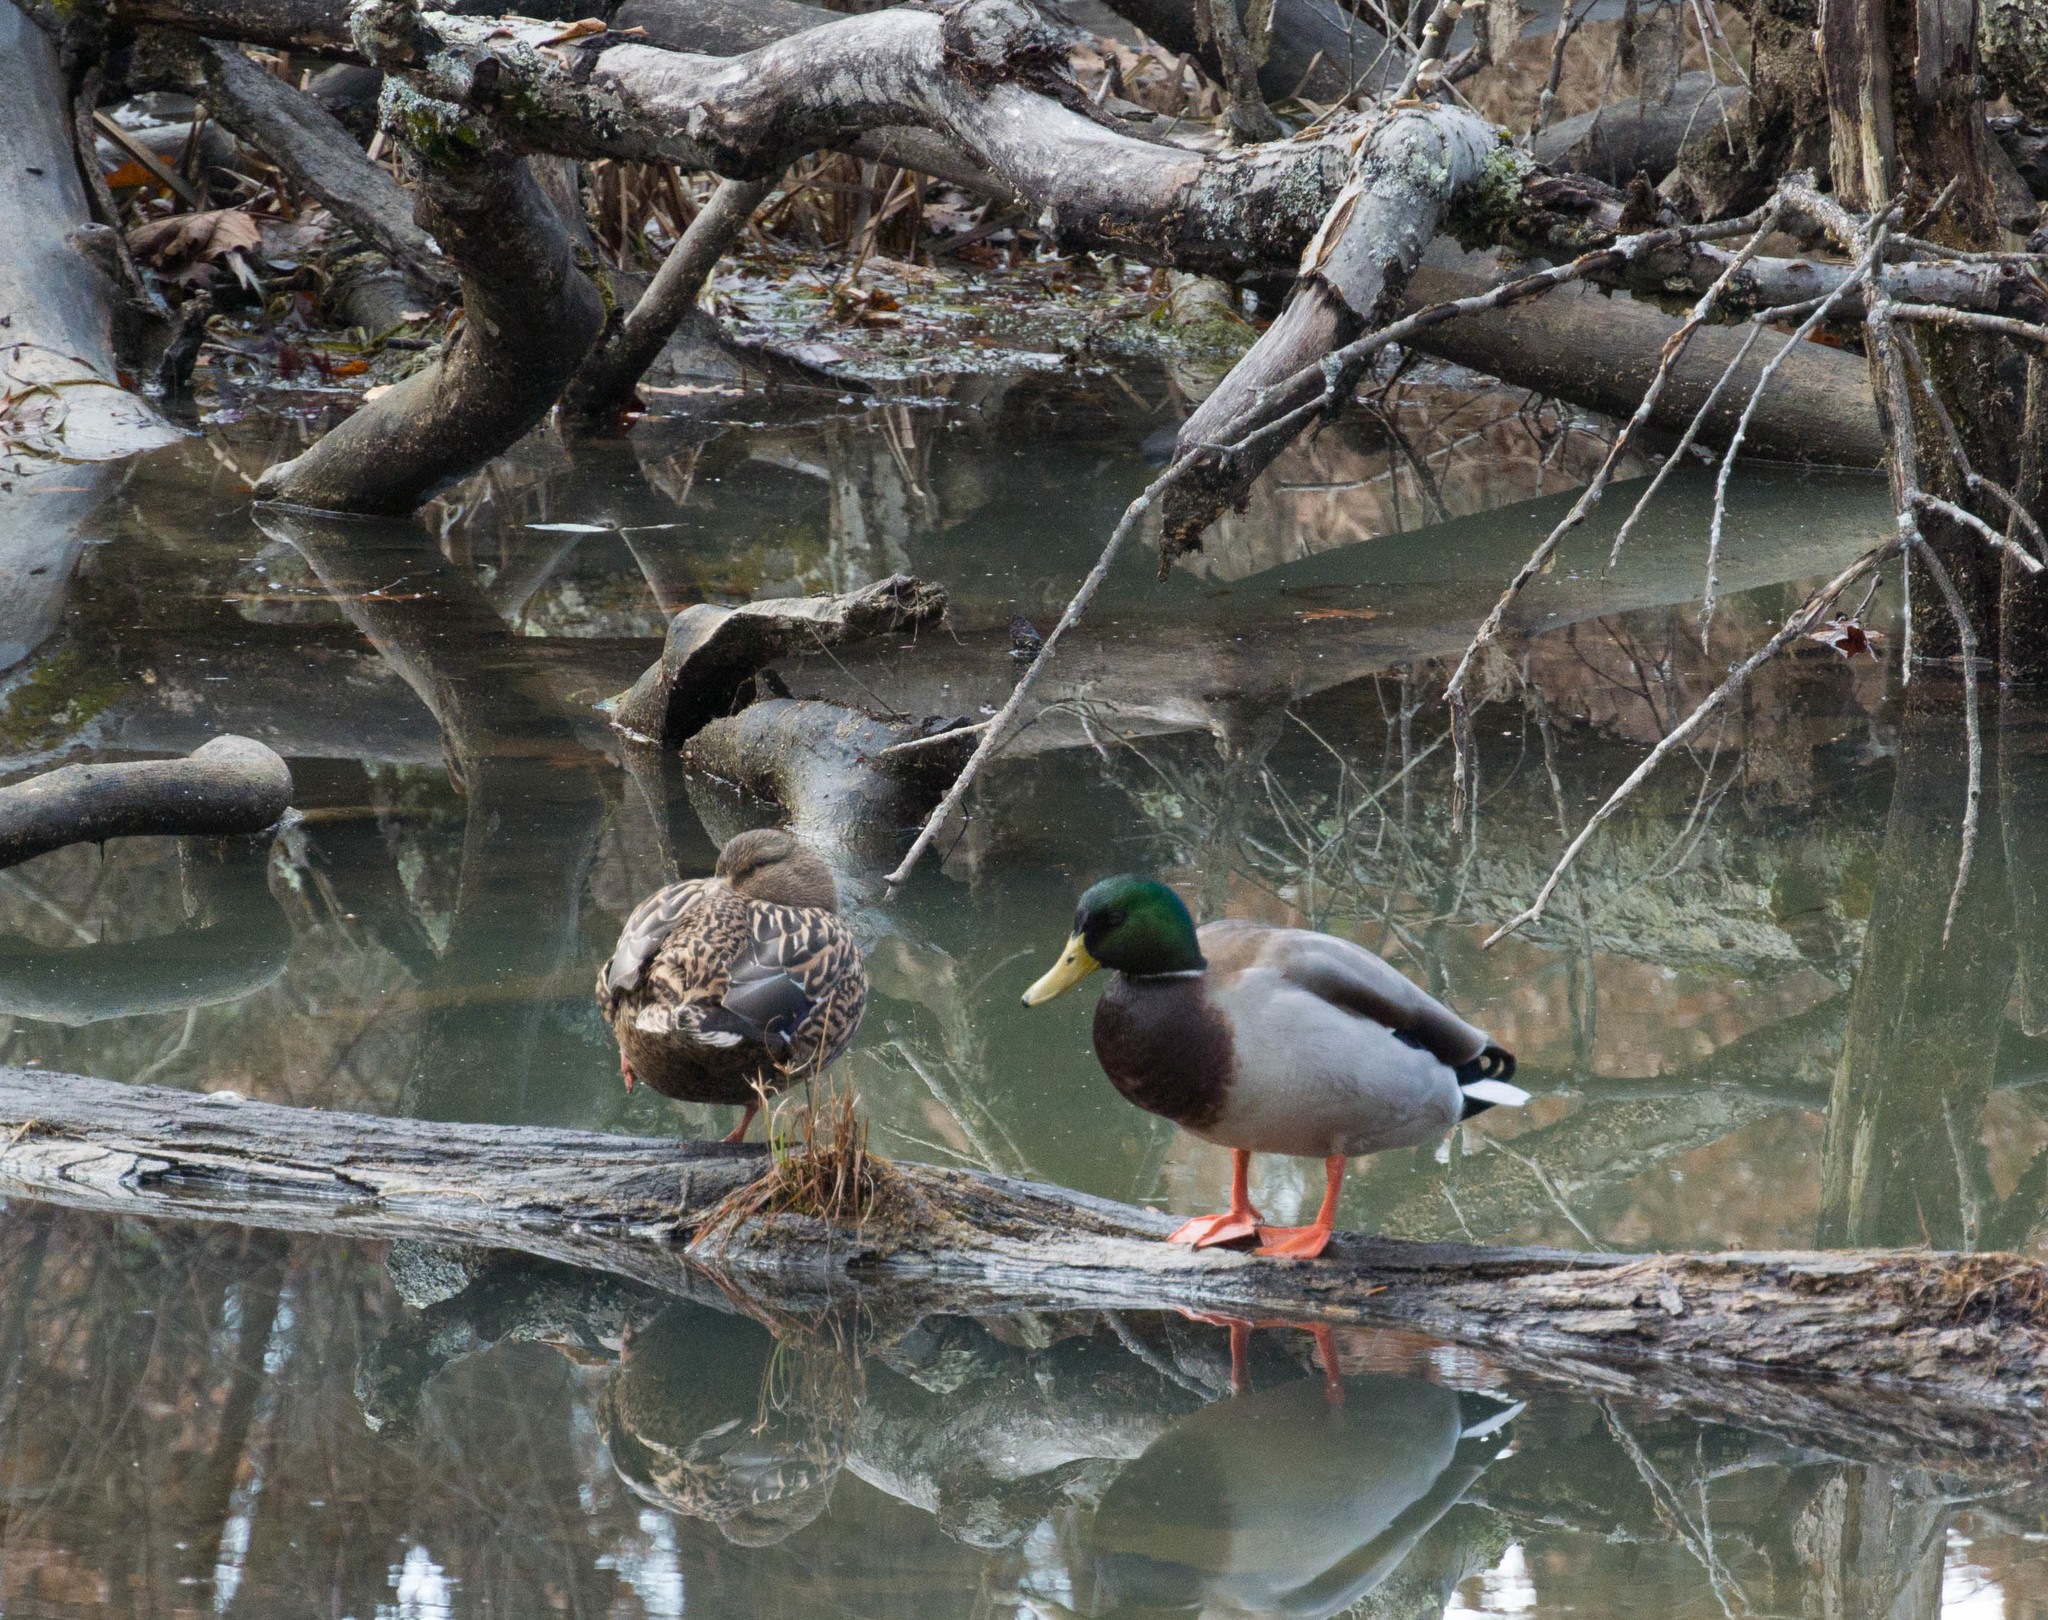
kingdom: Animalia
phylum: Chordata
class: Aves
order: Anseriformes
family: Anatidae
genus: Anas
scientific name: Anas platyrhynchos
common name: Mallard
